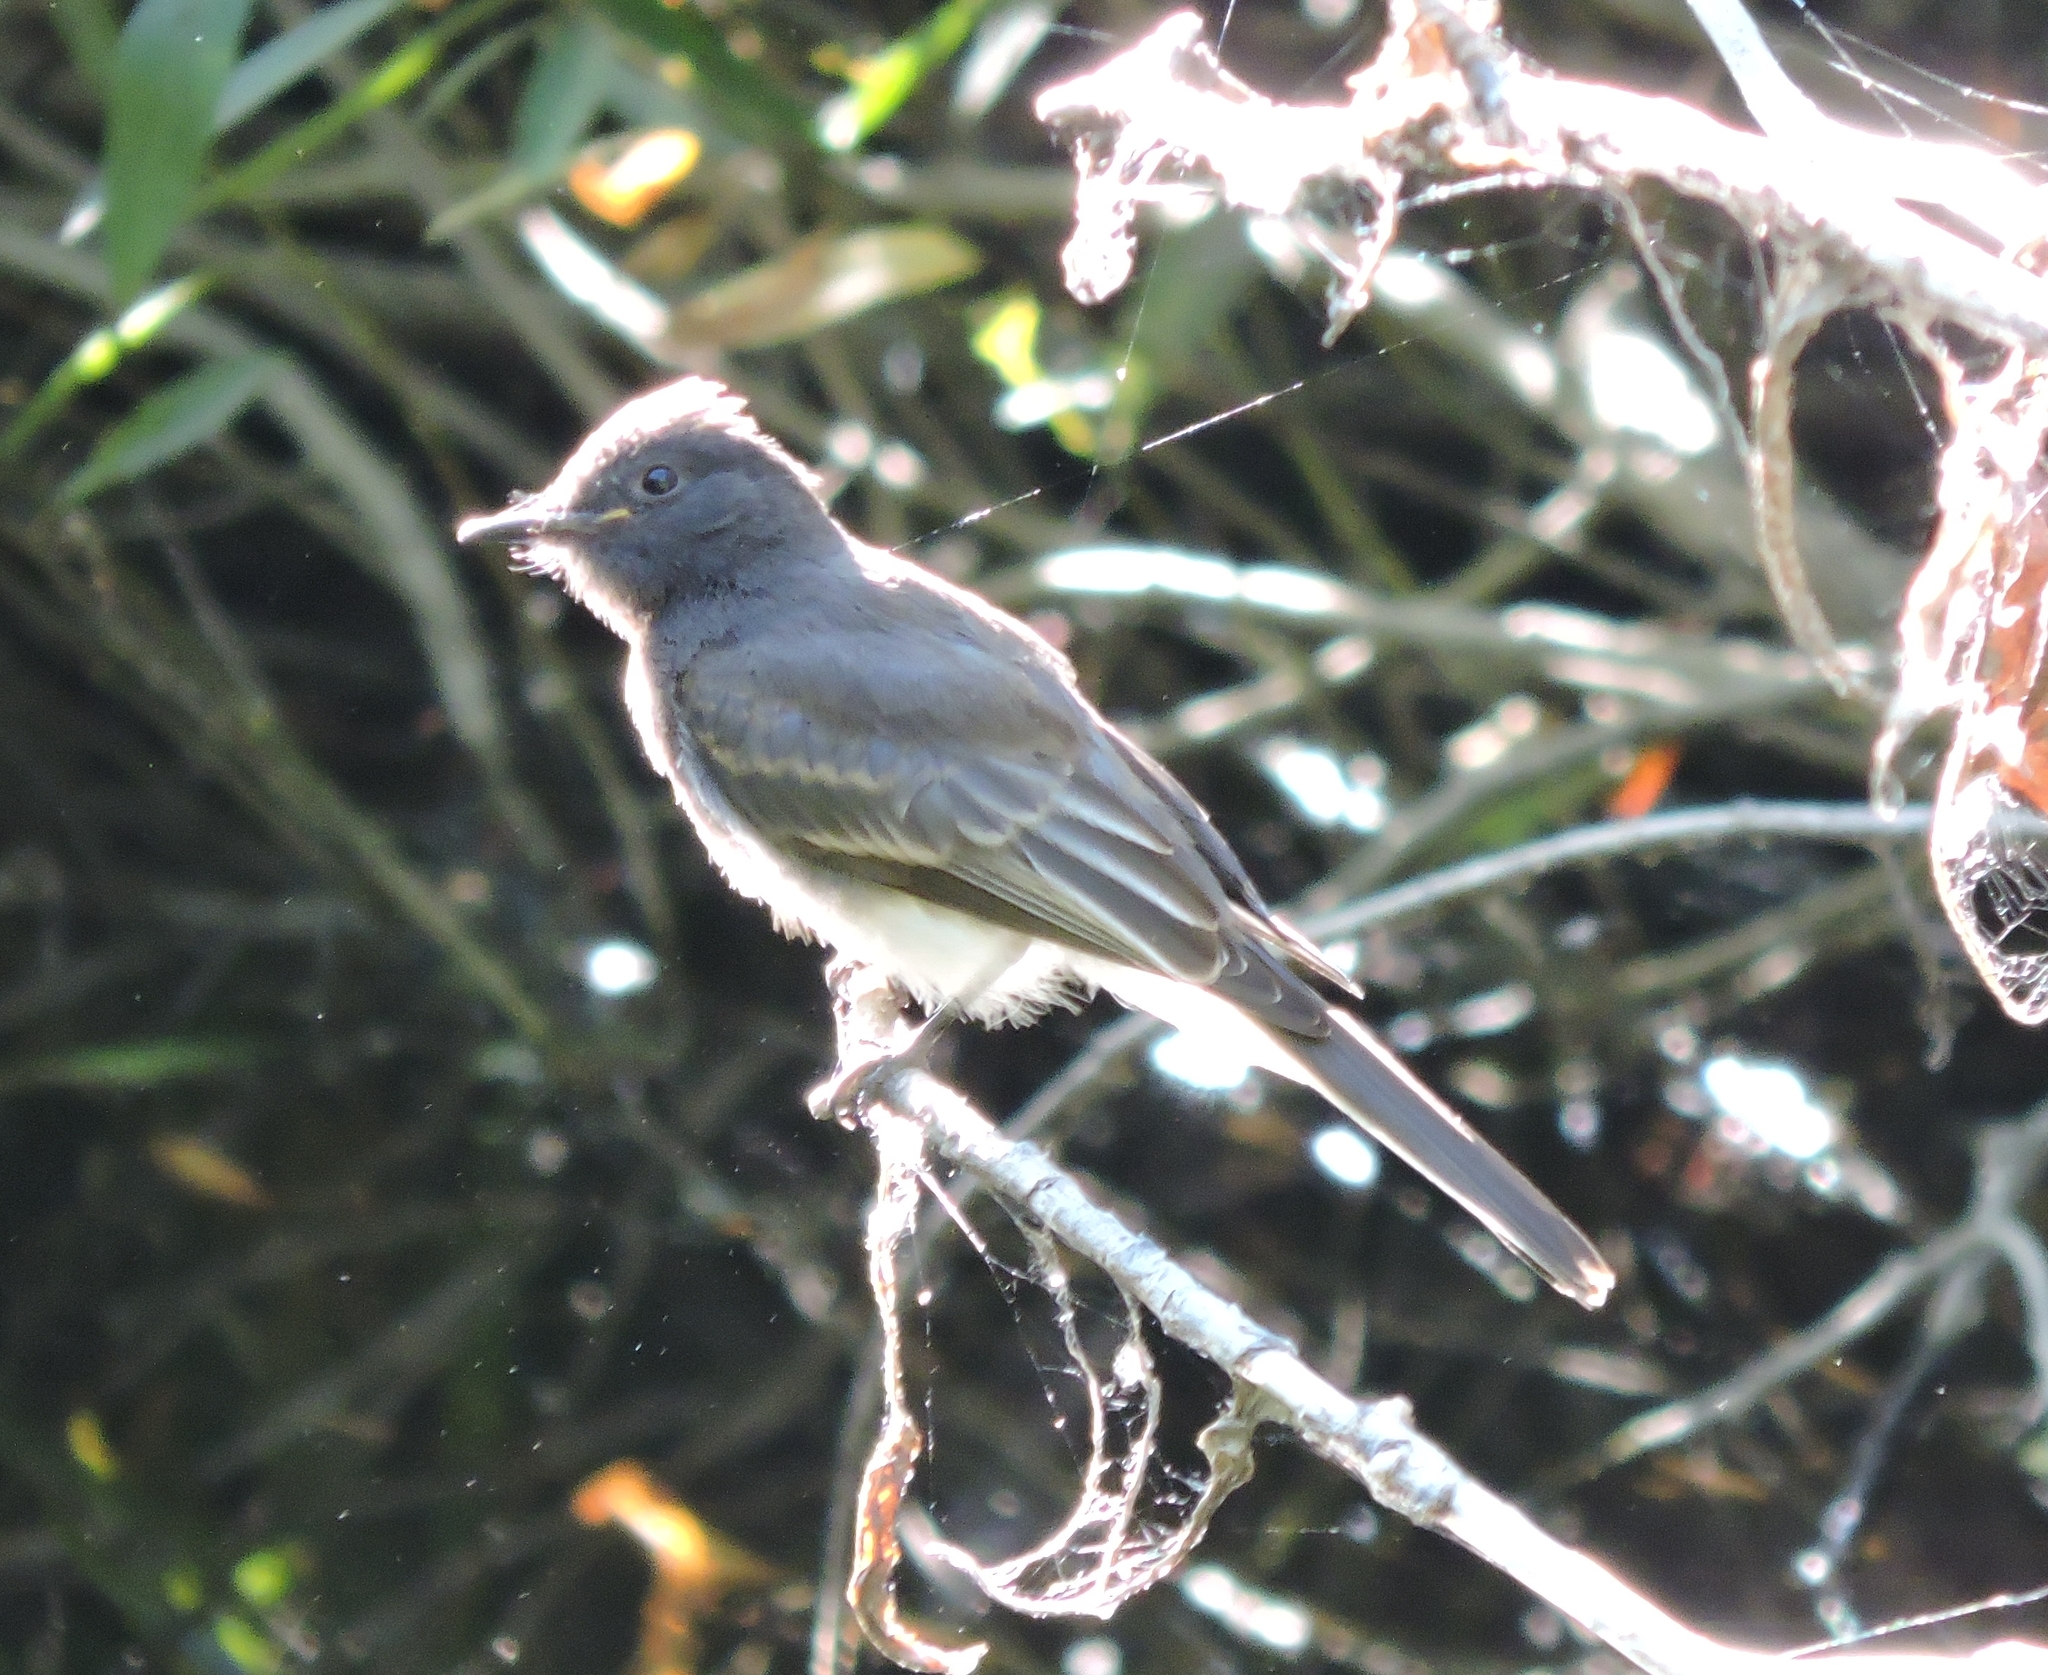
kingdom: Animalia
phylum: Chordata
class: Aves
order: Passeriformes
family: Tyrannidae
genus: Sayornis
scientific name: Sayornis nigricans
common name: Black phoebe
